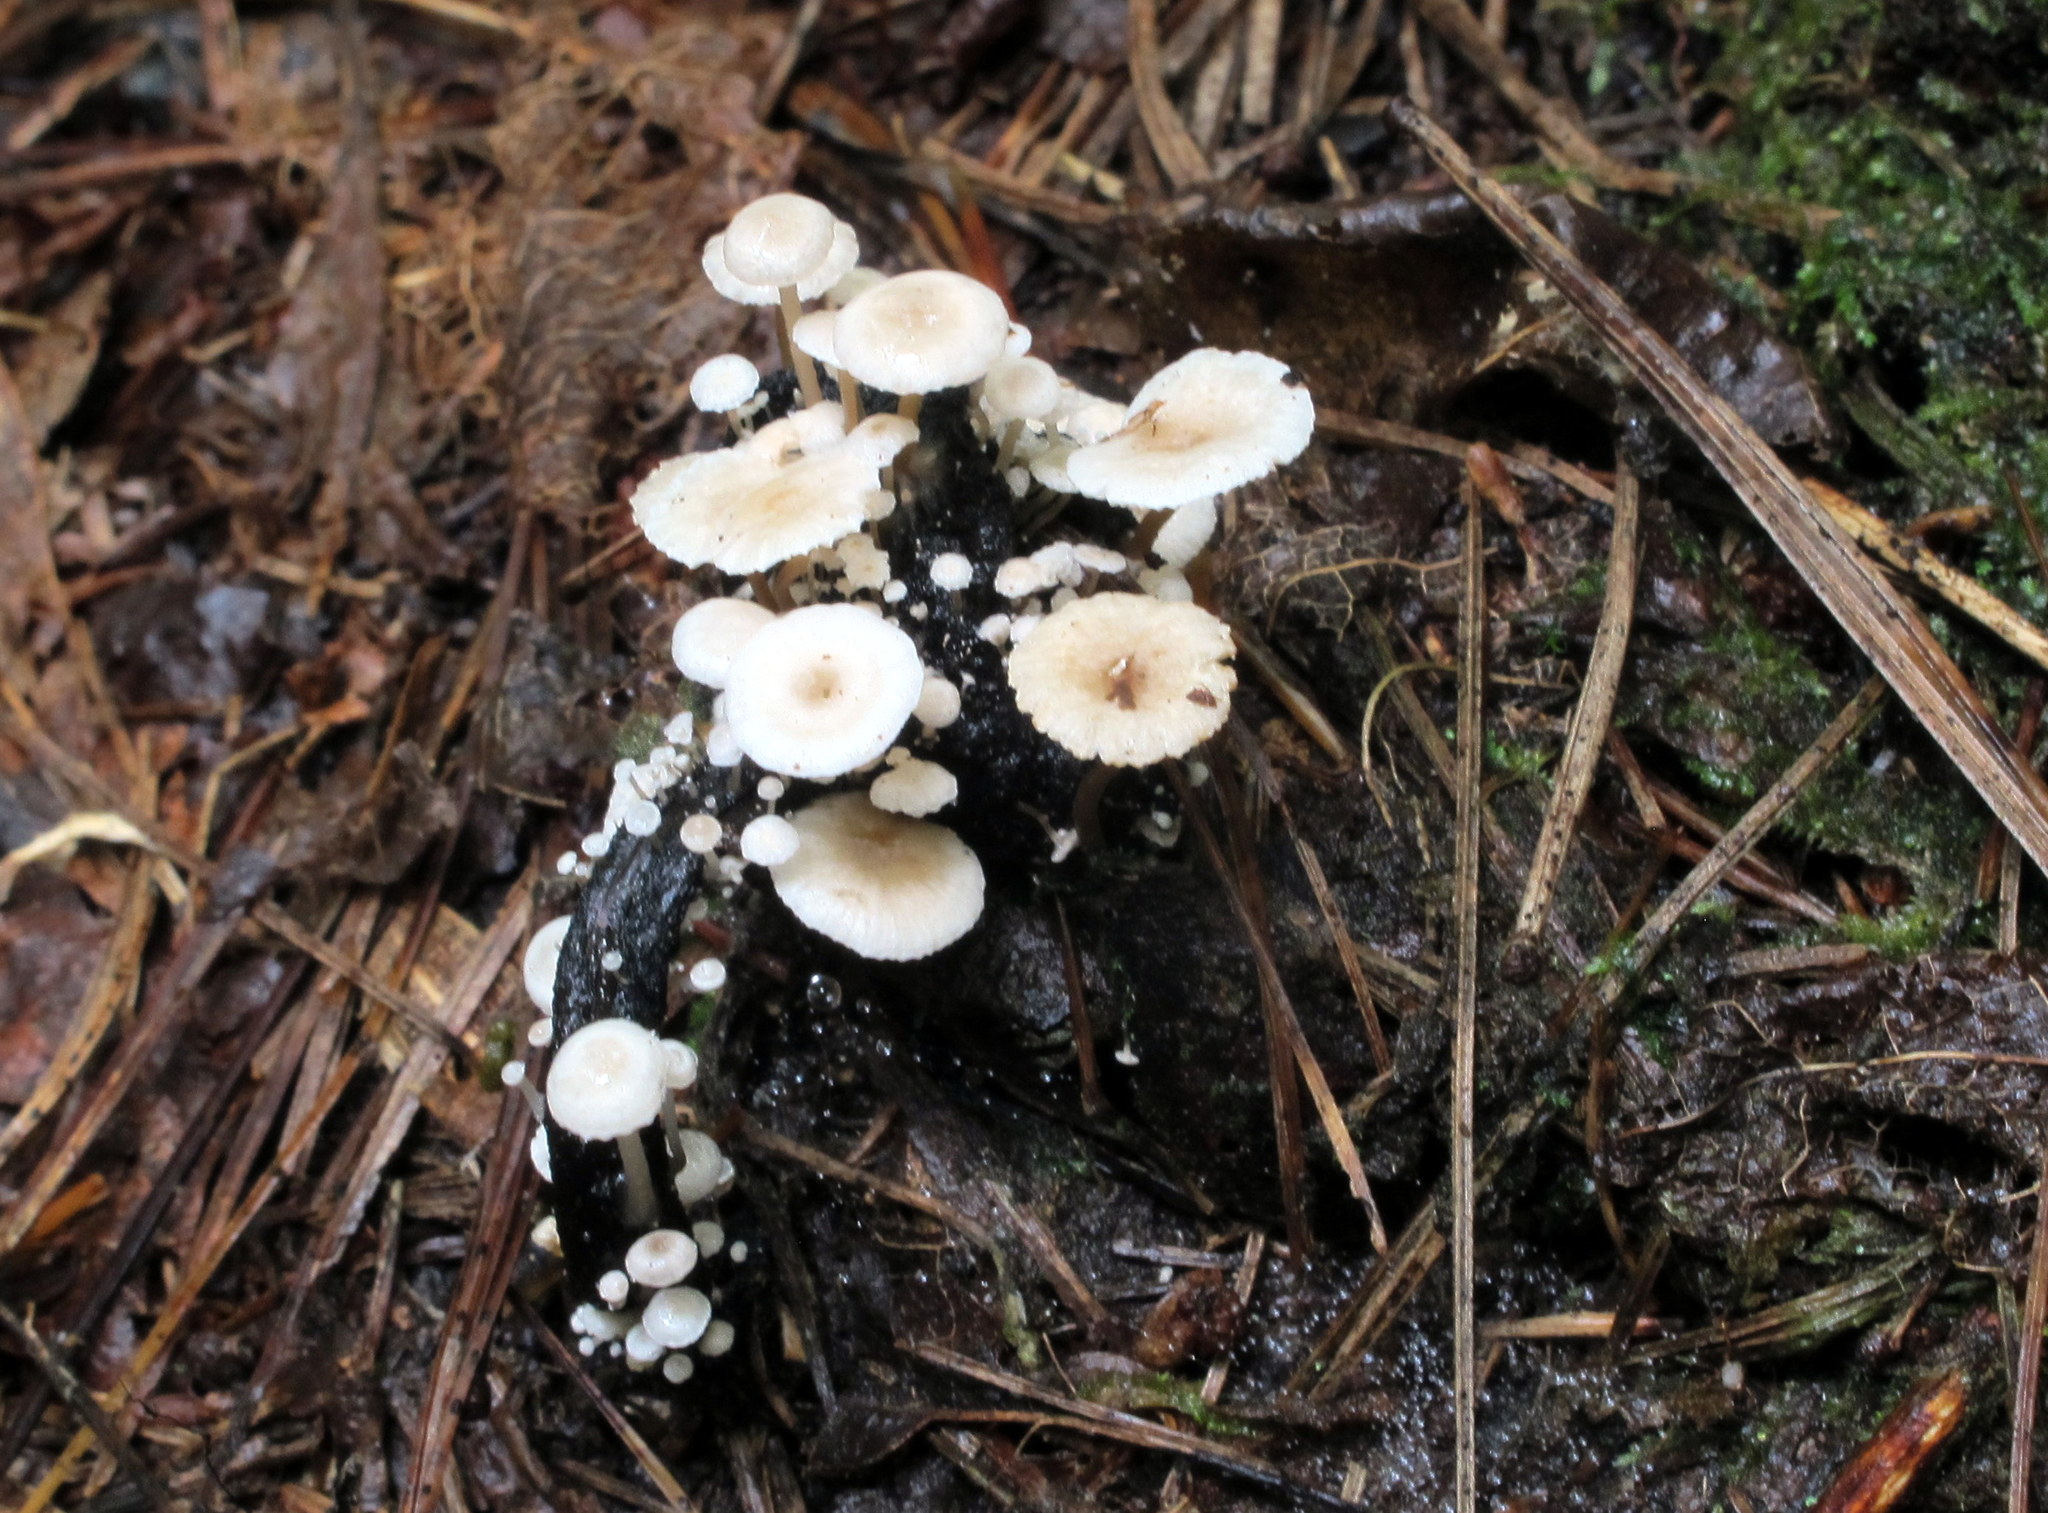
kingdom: Fungi
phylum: Basidiomycota
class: Agaricomycetes
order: Agaricales
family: Tricholomataceae
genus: Collybia
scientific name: Collybia cirrhata
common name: Piggyback shanklet
